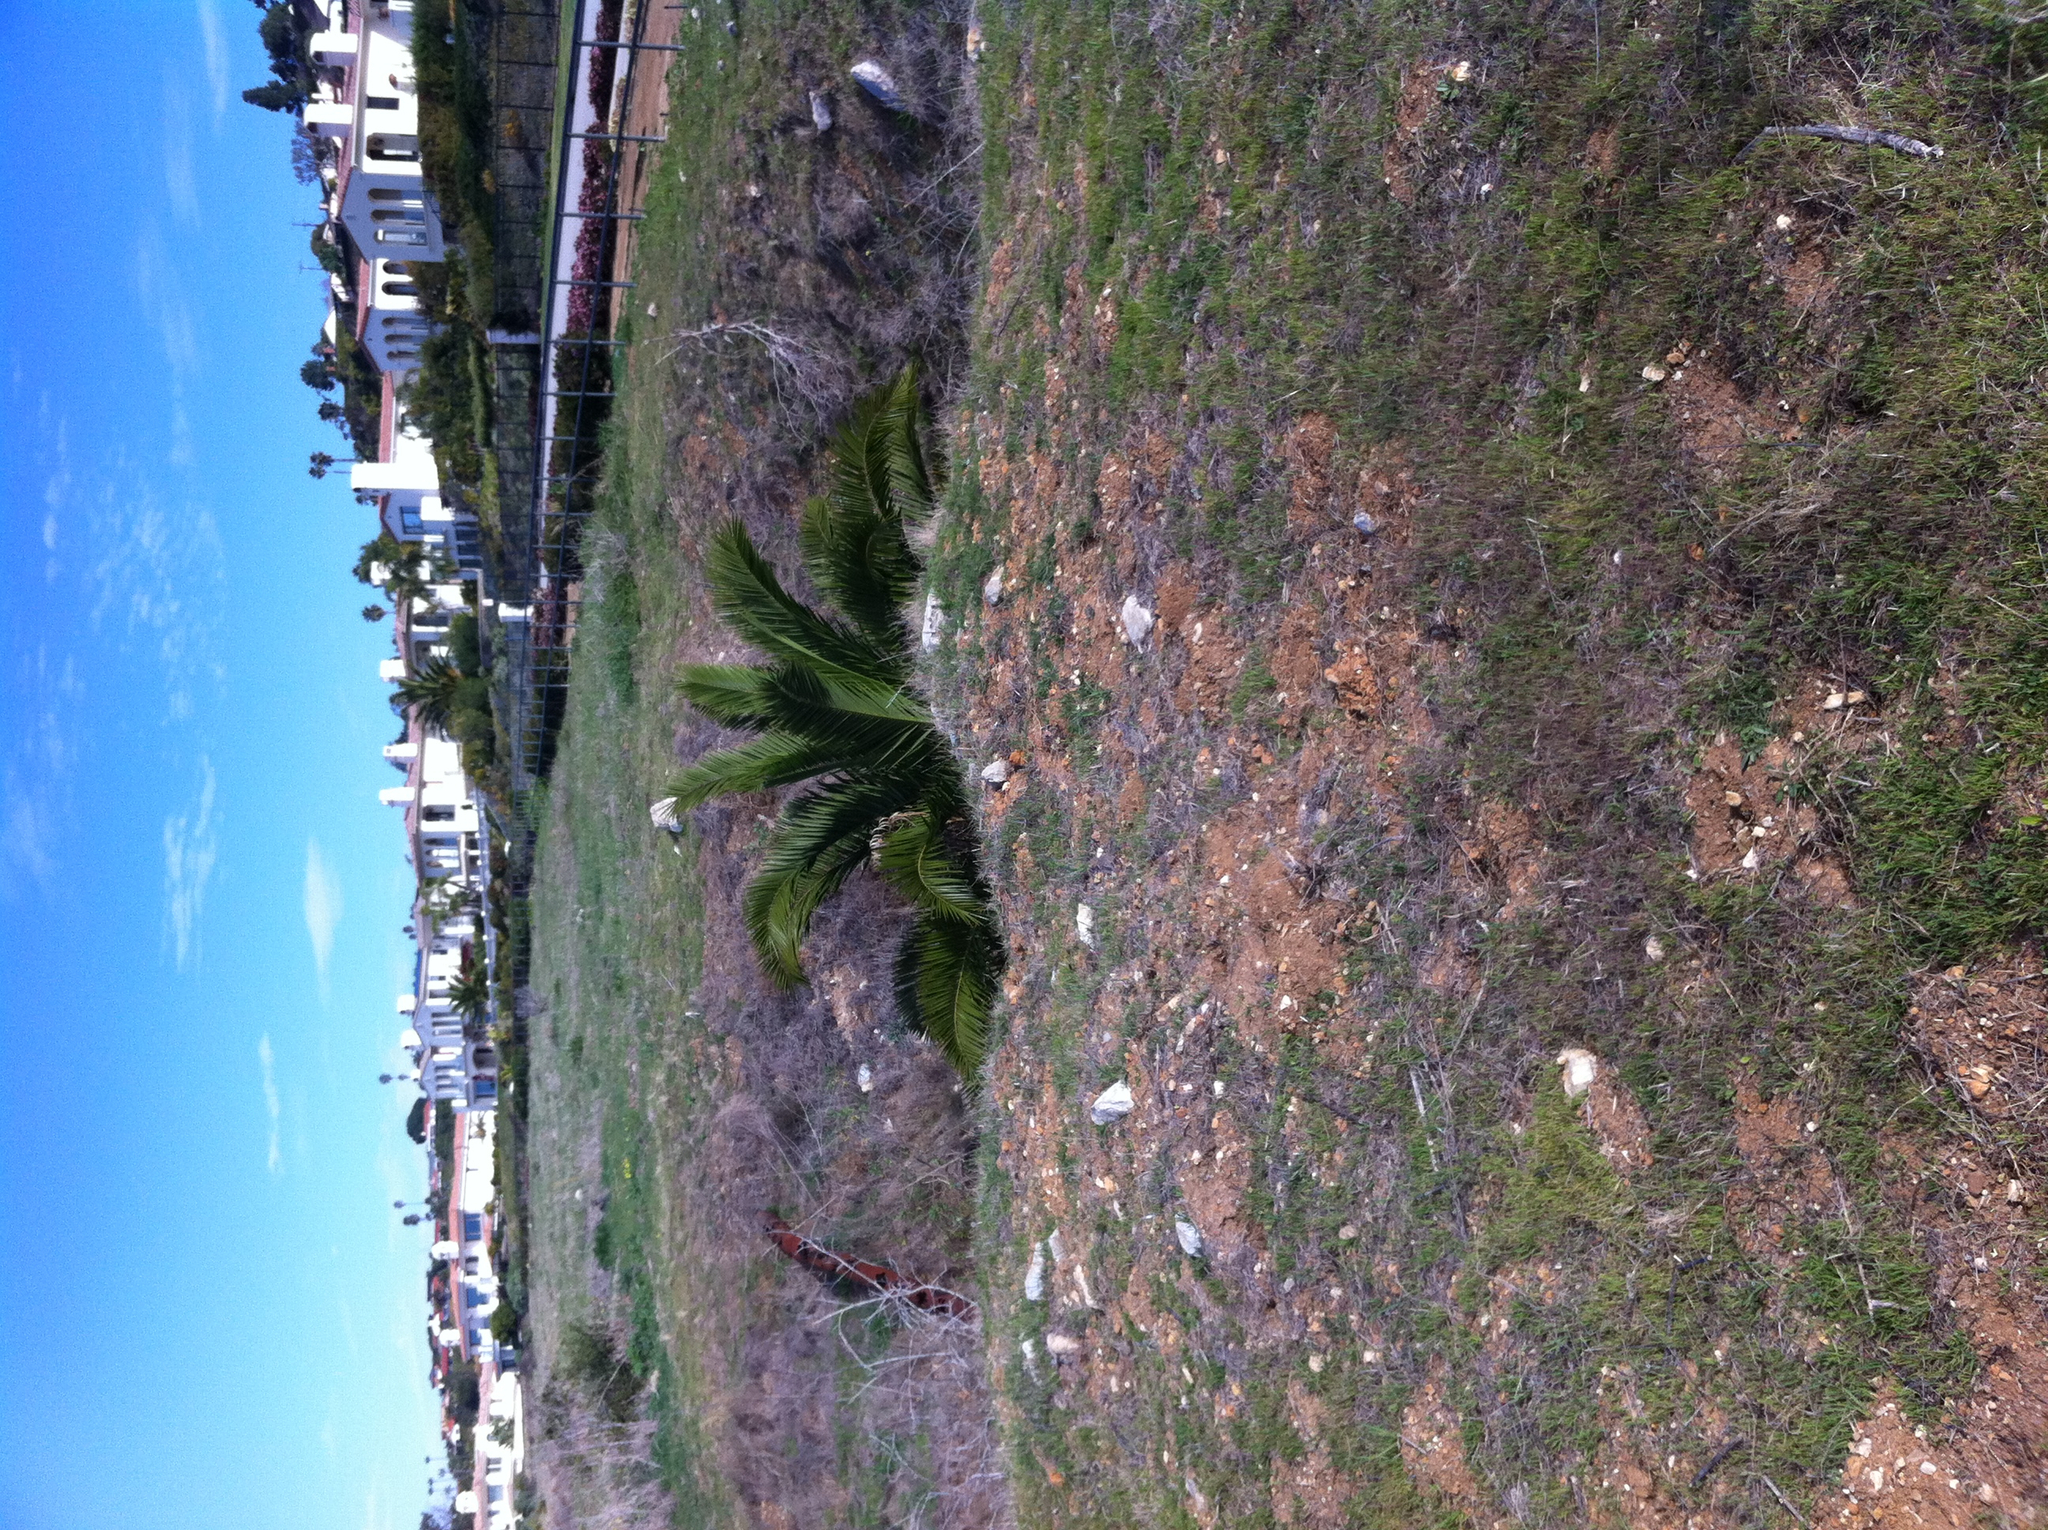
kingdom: Plantae
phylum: Tracheophyta
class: Liliopsida
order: Arecales
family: Arecaceae
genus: Phoenix
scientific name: Phoenix canariensis
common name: Canary island date palm
